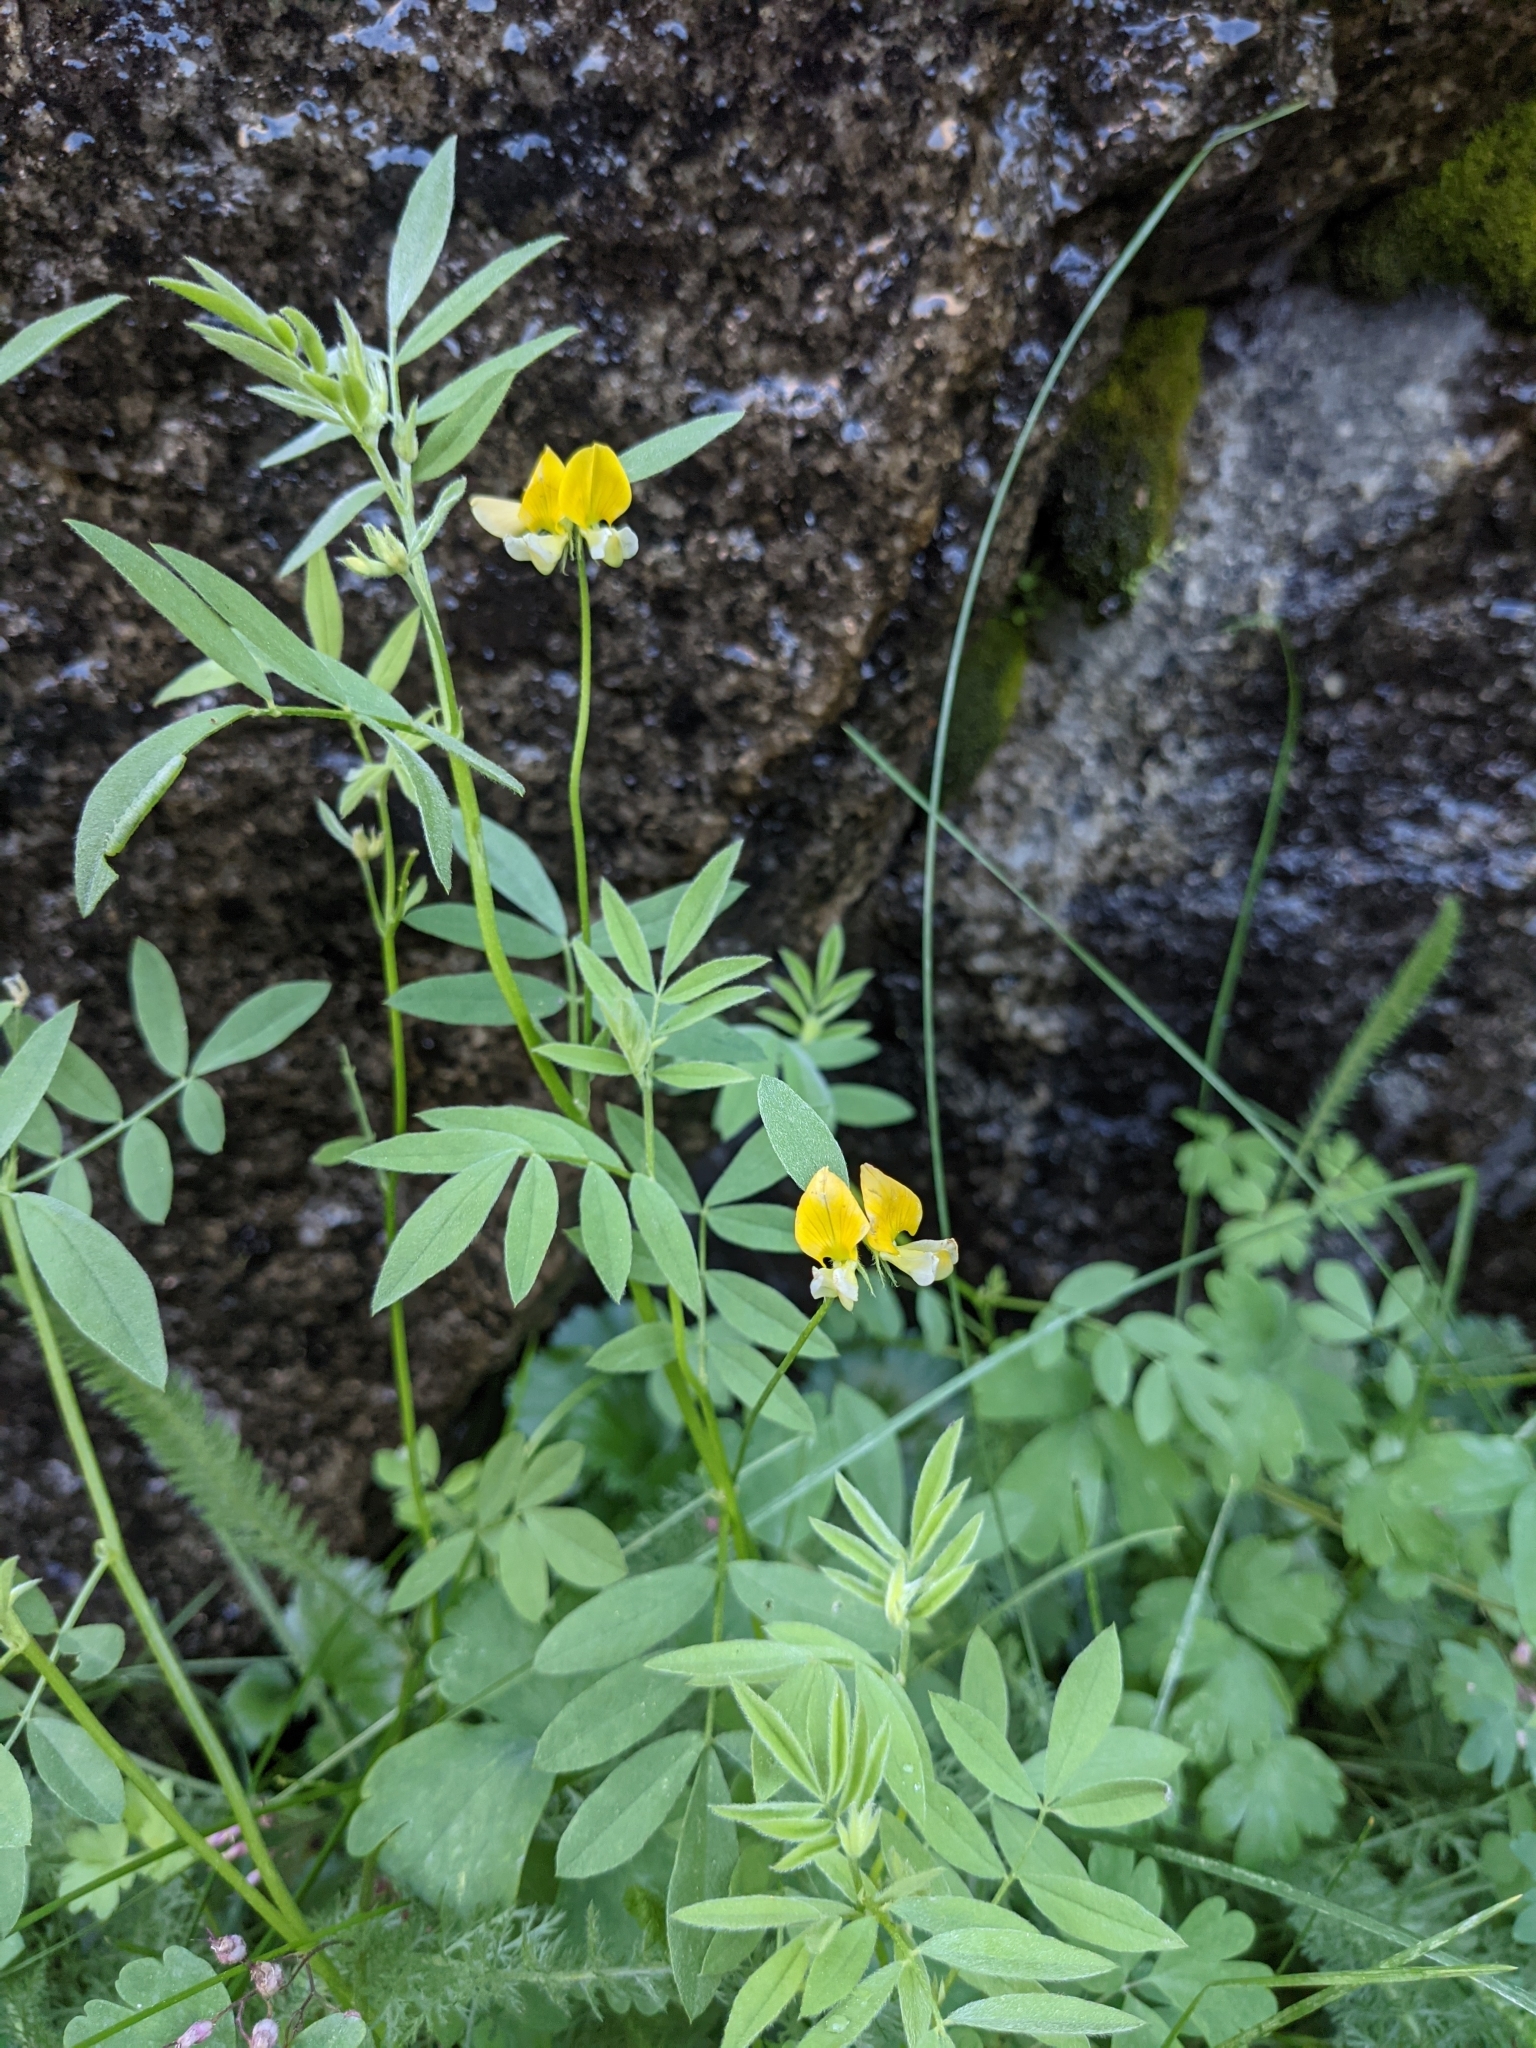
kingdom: Plantae
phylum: Tracheophyta
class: Magnoliopsida
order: Fabales
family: Fabaceae
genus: Hosackia
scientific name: Hosackia oblongifolia
